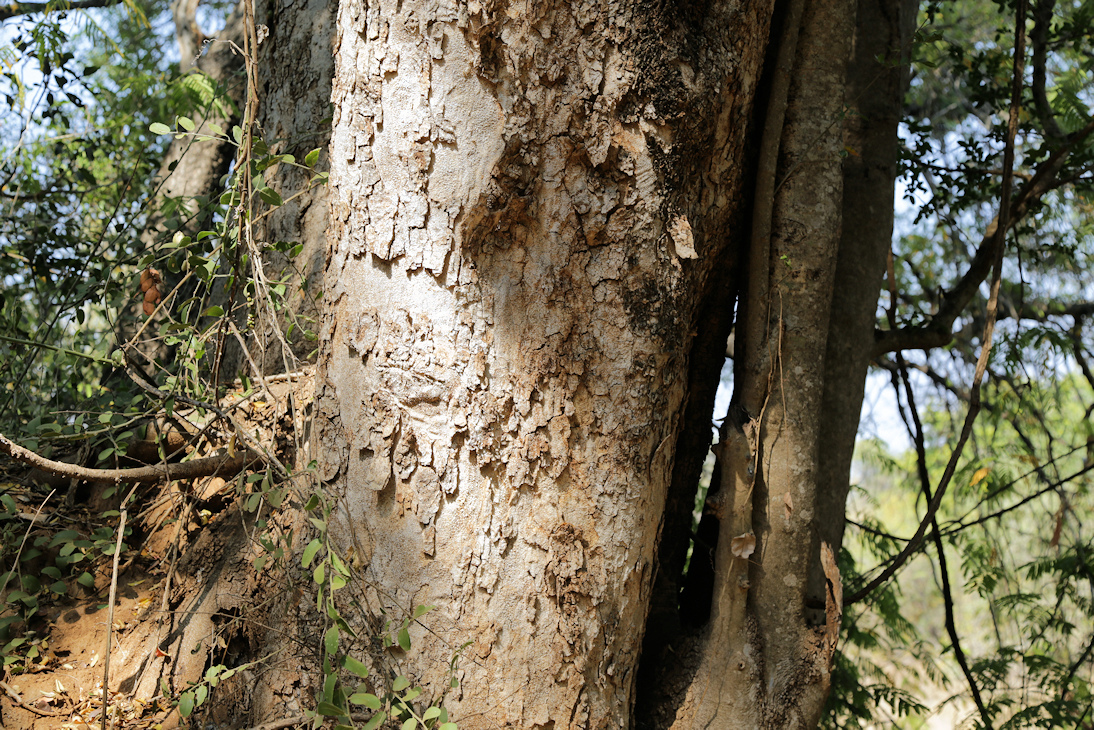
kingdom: Plantae
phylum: Tracheophyta
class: Magnoliopsida
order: Fabales
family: Fabaceae
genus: Xanthocercis
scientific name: Xanthocercis zambesiaca
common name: Nyala-tree
